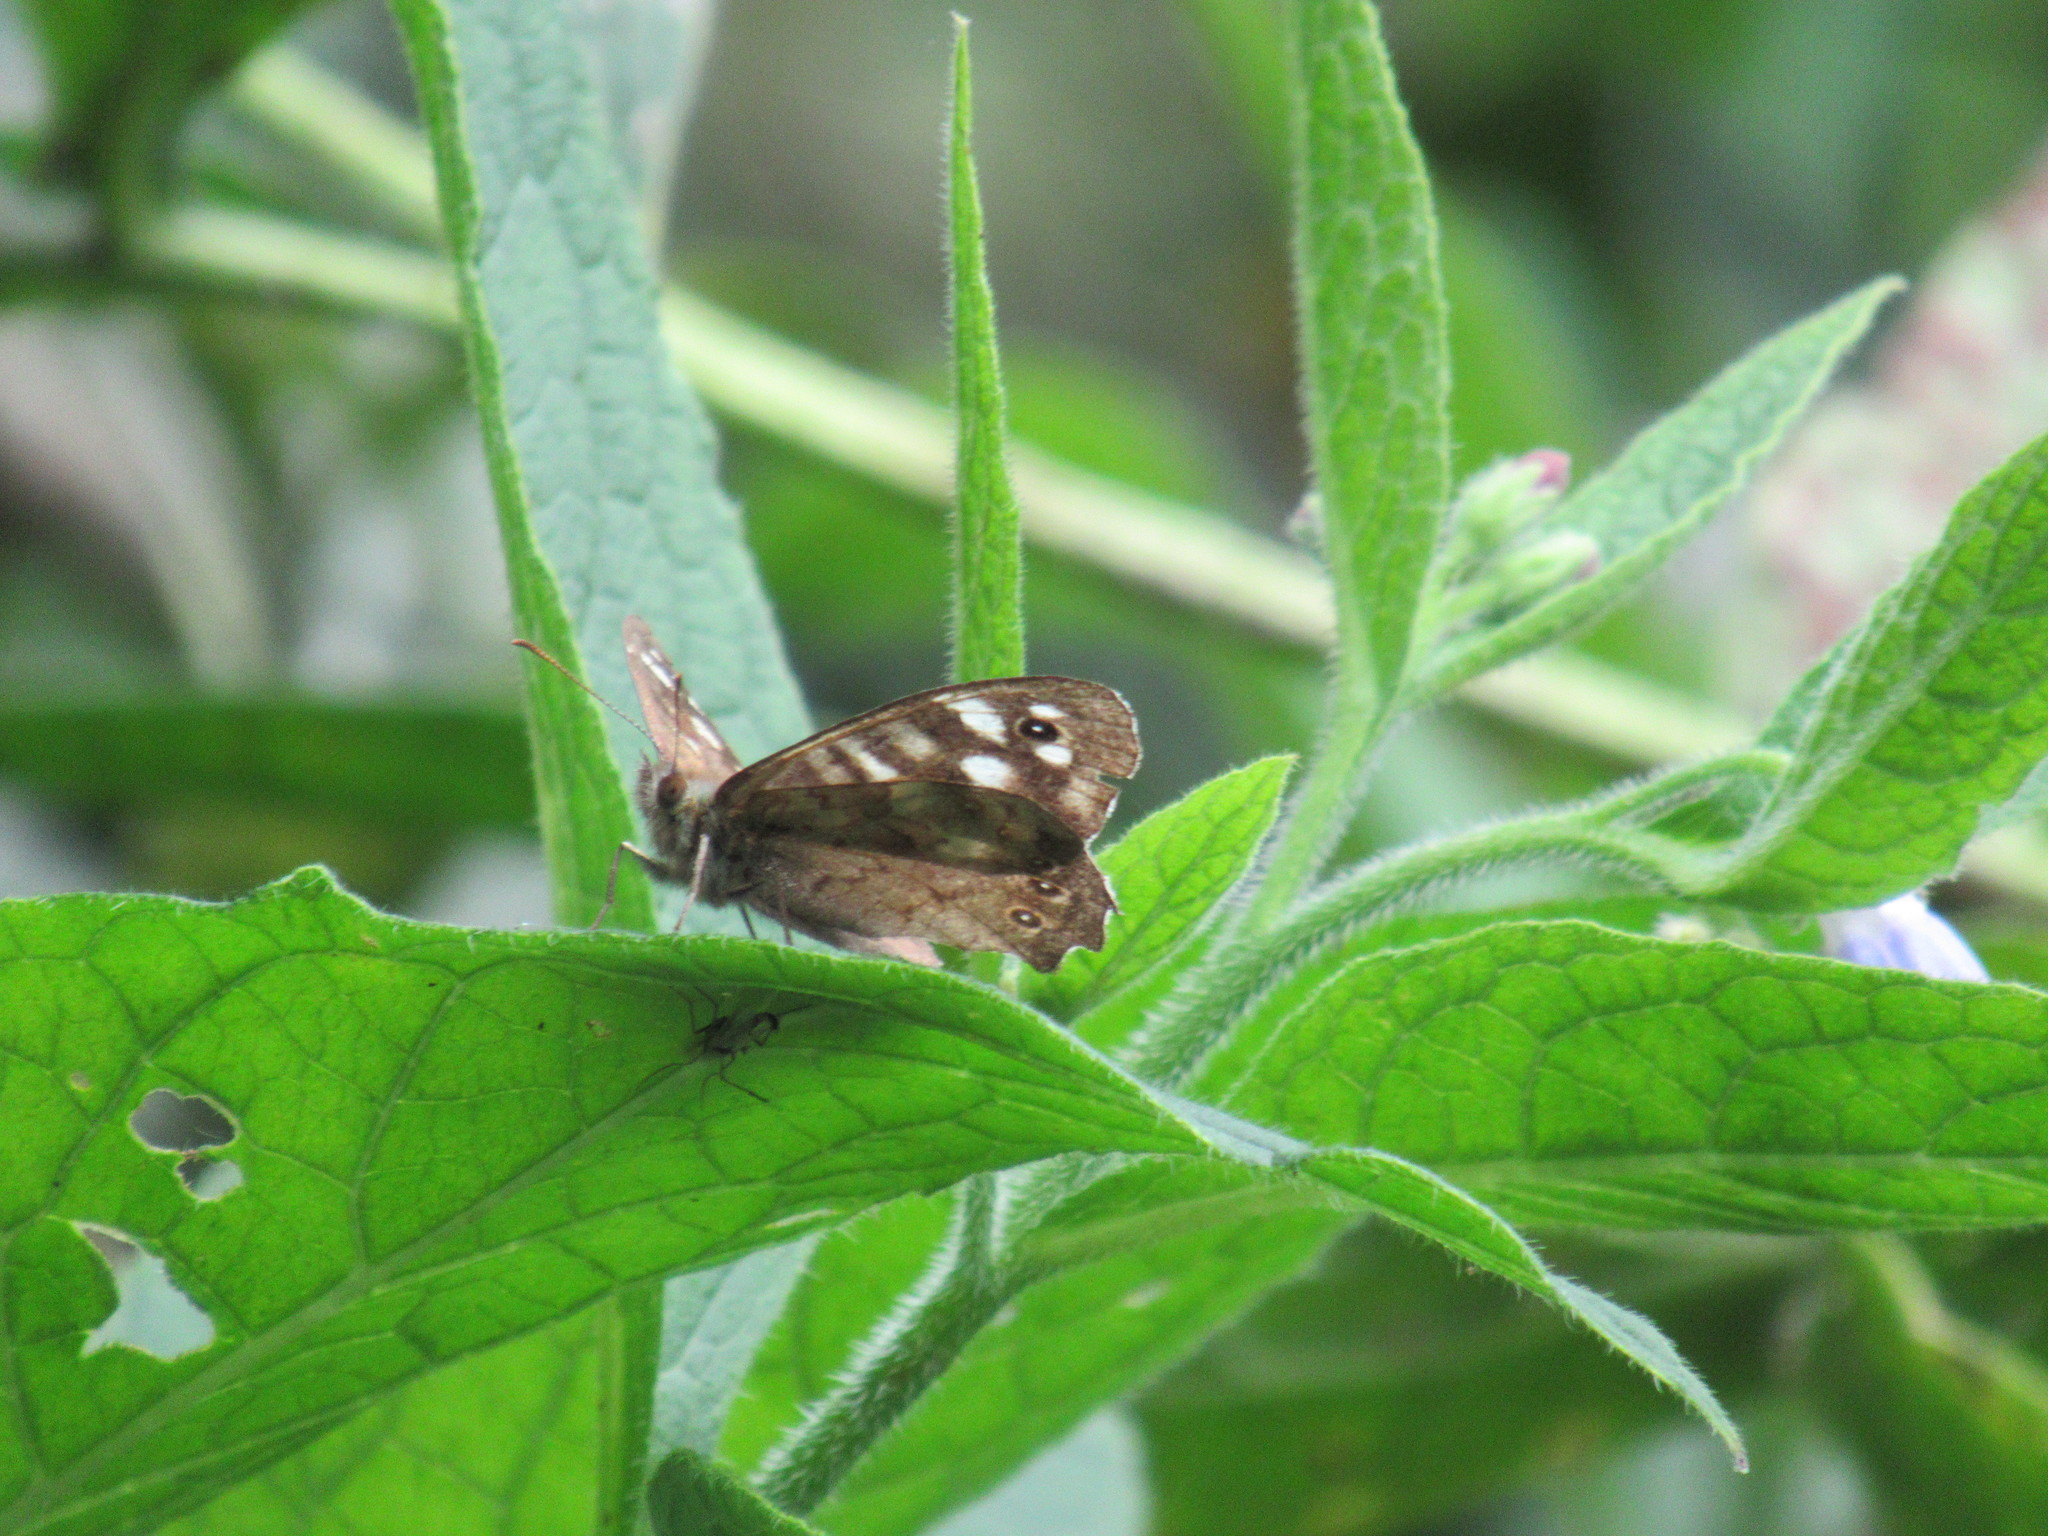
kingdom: Animalia
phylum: Arthropoda
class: Insecta
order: Lepidoptera
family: Nymphalidae
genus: Pararge
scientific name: Pararge aegeria
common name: Speckled wood
